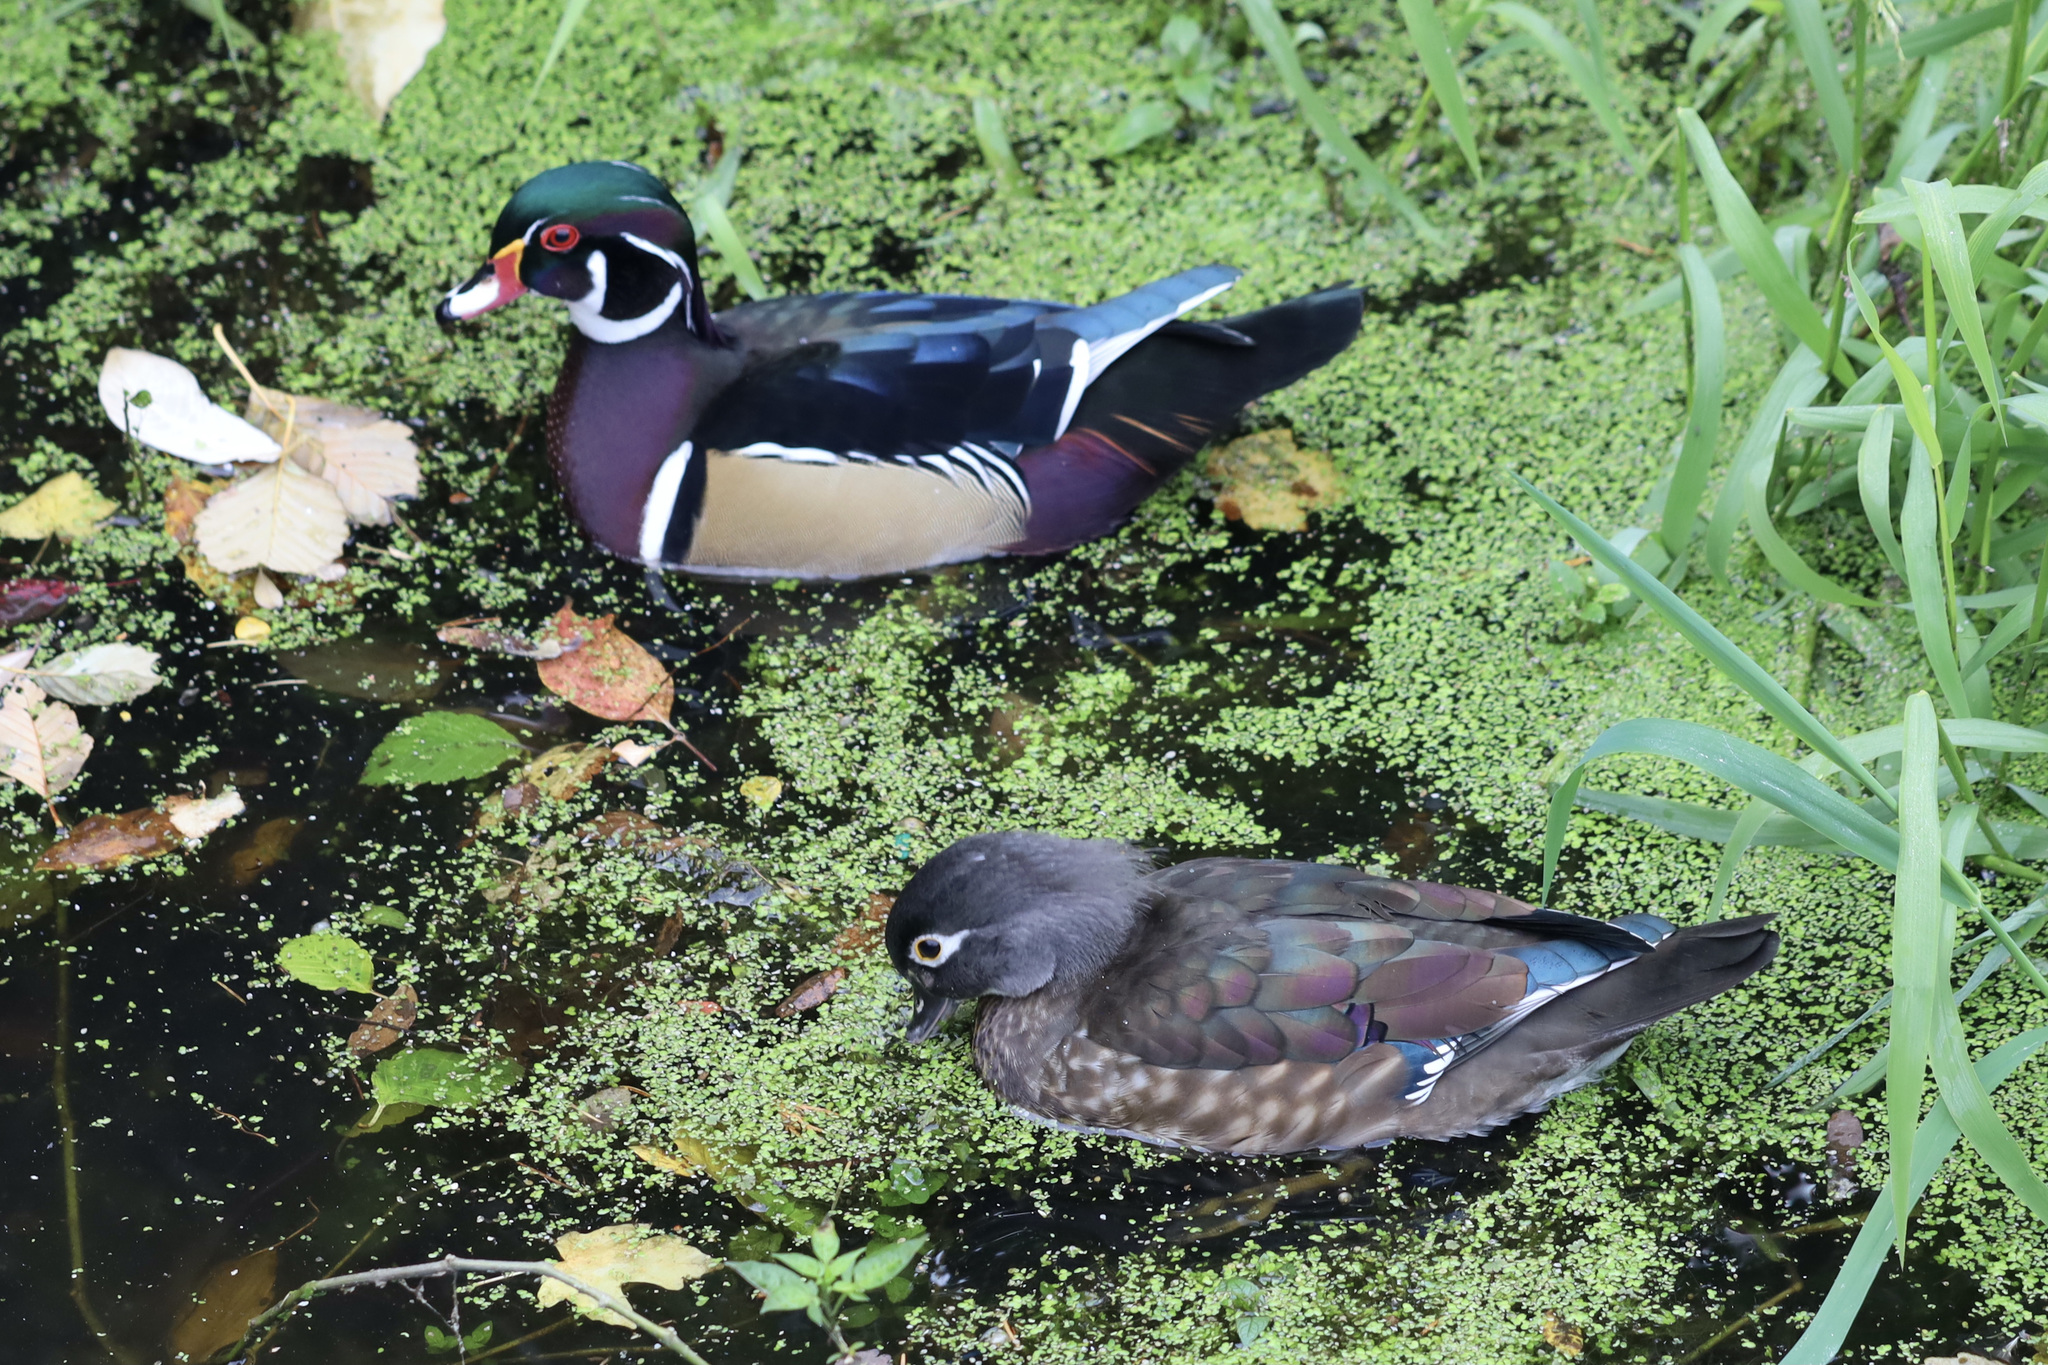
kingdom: Animalia
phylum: Chordata
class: Aves
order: Anseriformes
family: Anatidae
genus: Aix
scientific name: Aix sponsa
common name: Wood duck
